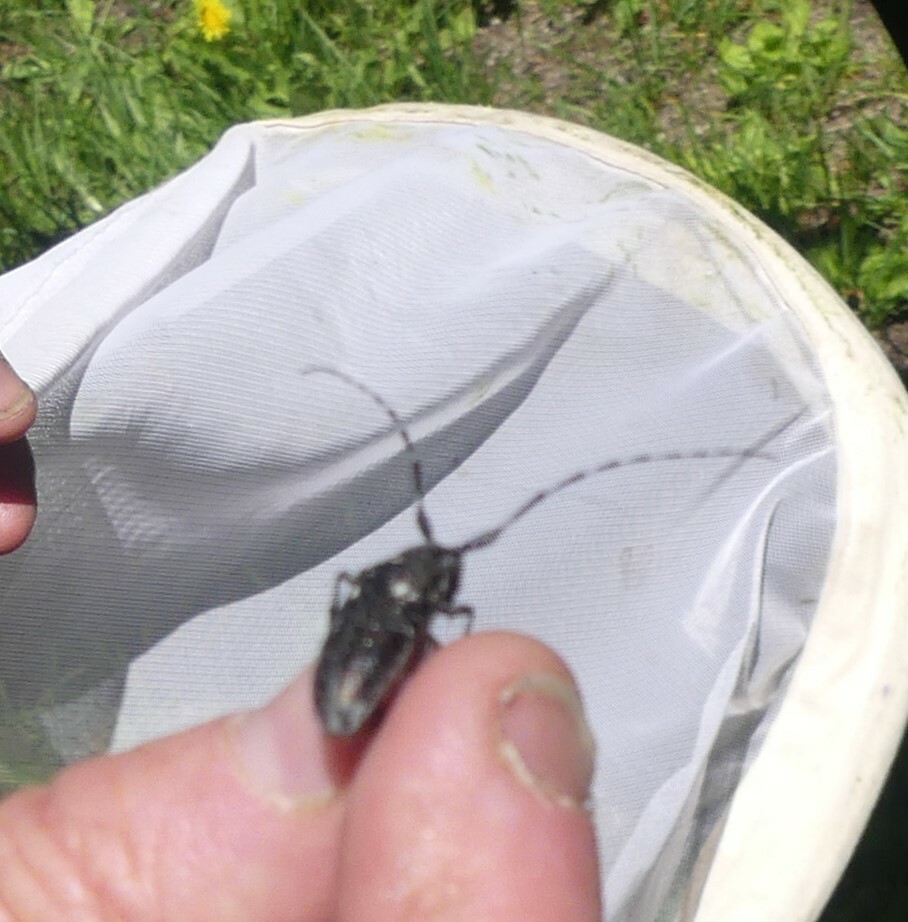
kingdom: Animalia
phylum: Arthropoda
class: Insecta
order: Coleoptera
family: Cerambycidae
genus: Monochamus
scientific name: Monochamus scutellatus
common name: White-spotted sawyer beetle
